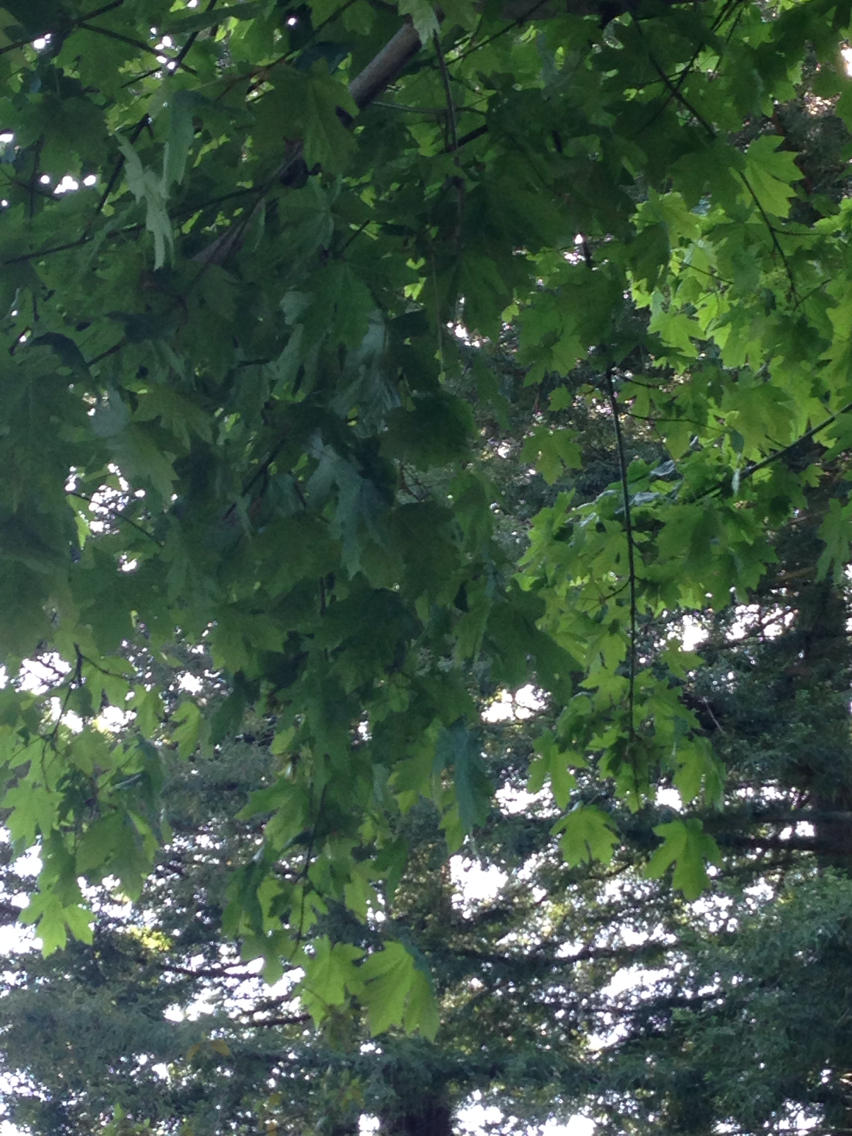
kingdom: Plantae
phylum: Tracheophyta
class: Magnoliopsida
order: Sapindales
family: Sapindaceae
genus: Acer
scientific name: Acer macrophyllum
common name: Oregon maple
